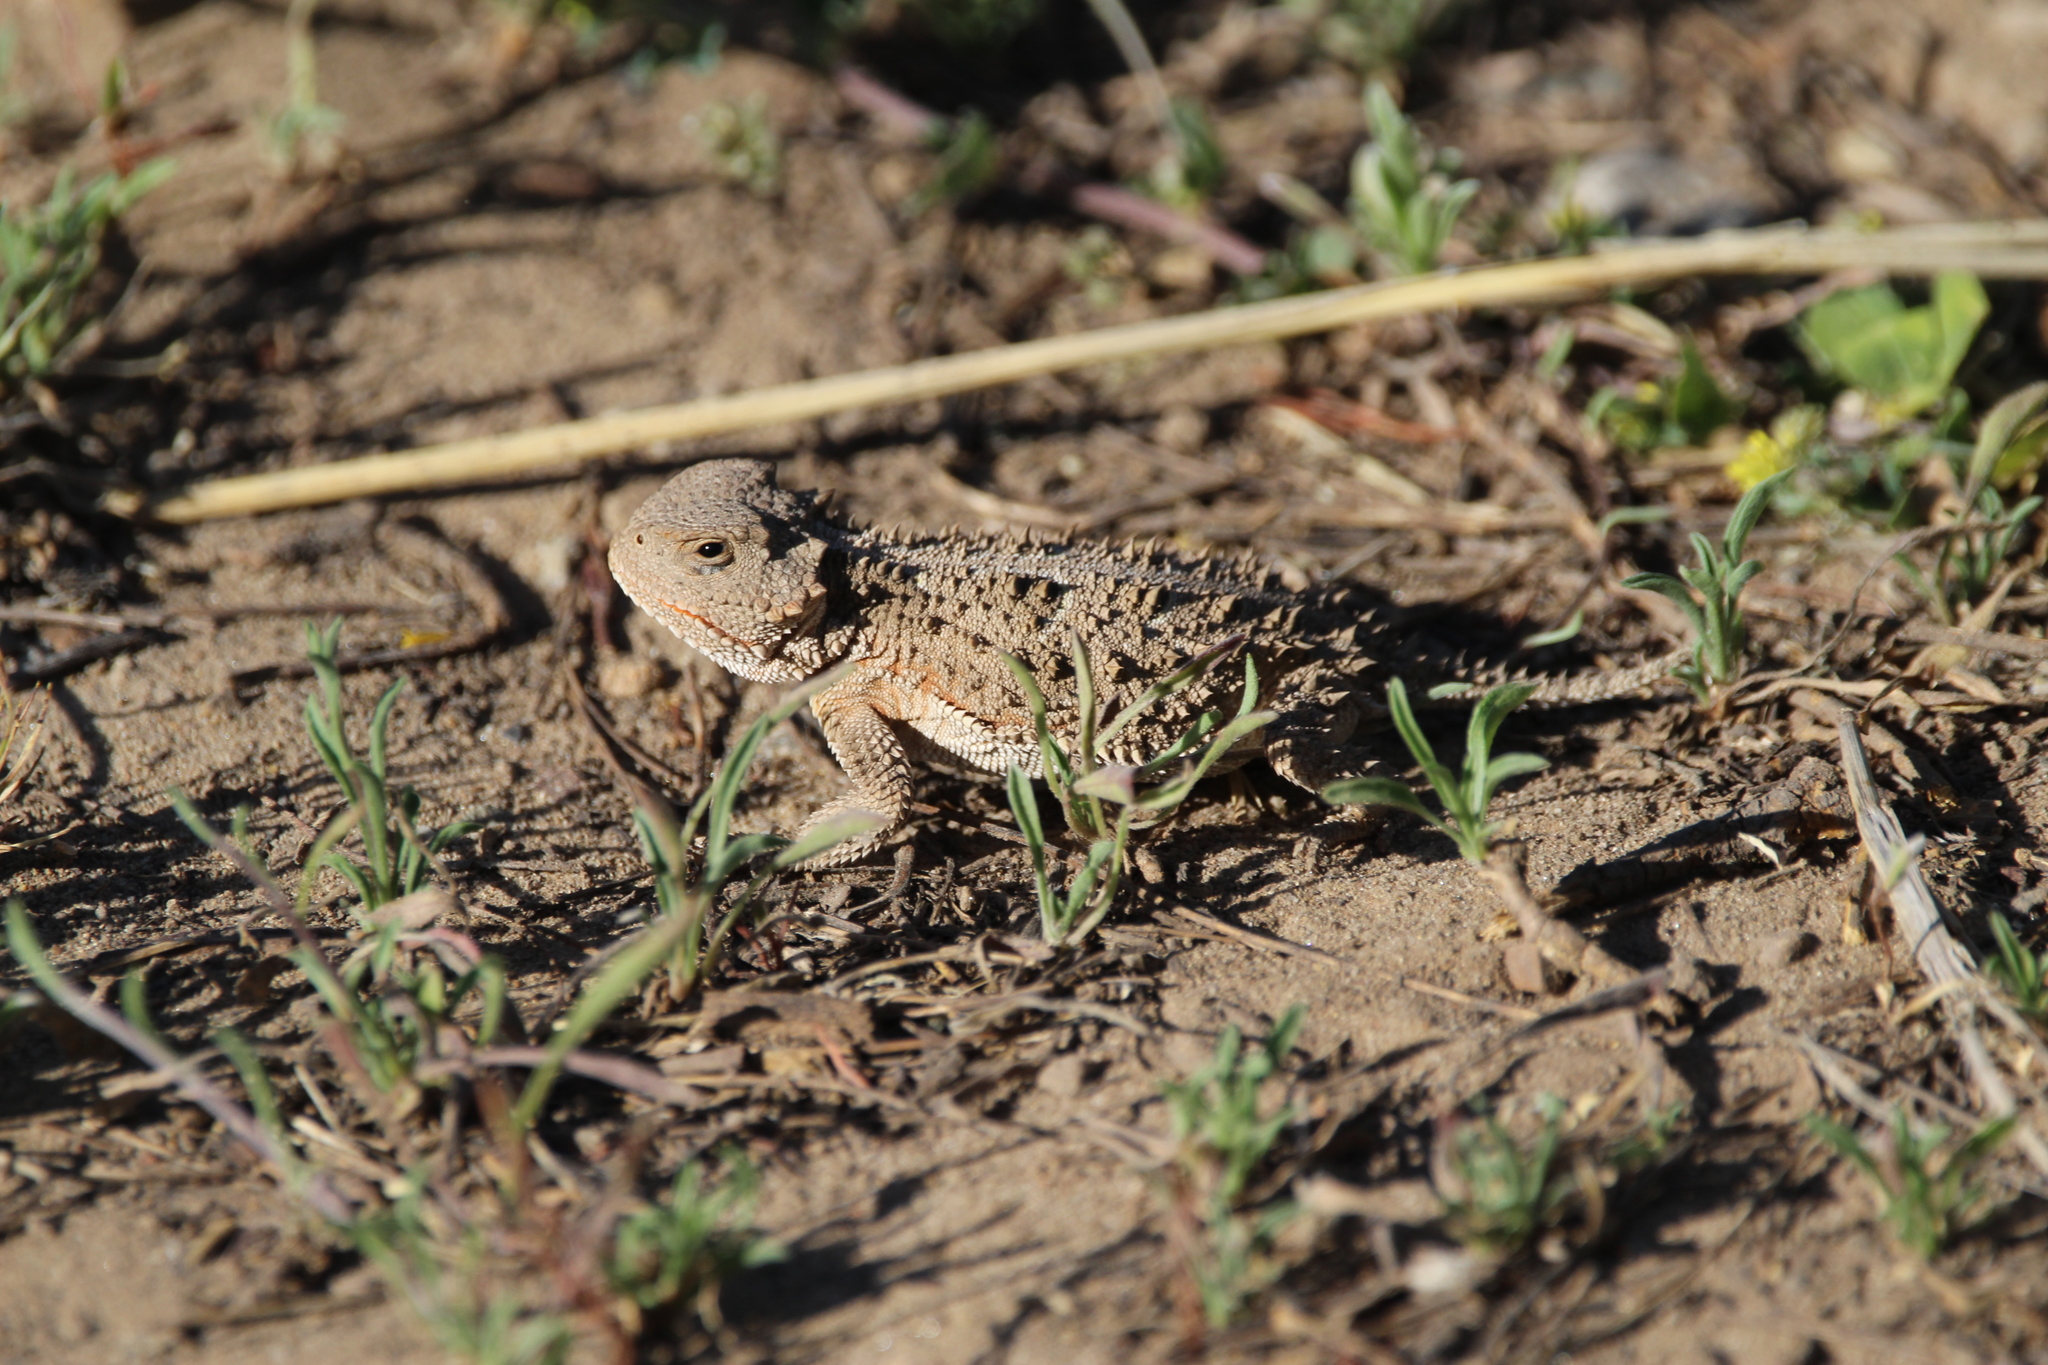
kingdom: Animalia
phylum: Chordata
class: Squamata
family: Phrynosomatidae
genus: Phrynosoma
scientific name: Phrynosoma hernandesi
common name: Greater short-horned lizard
